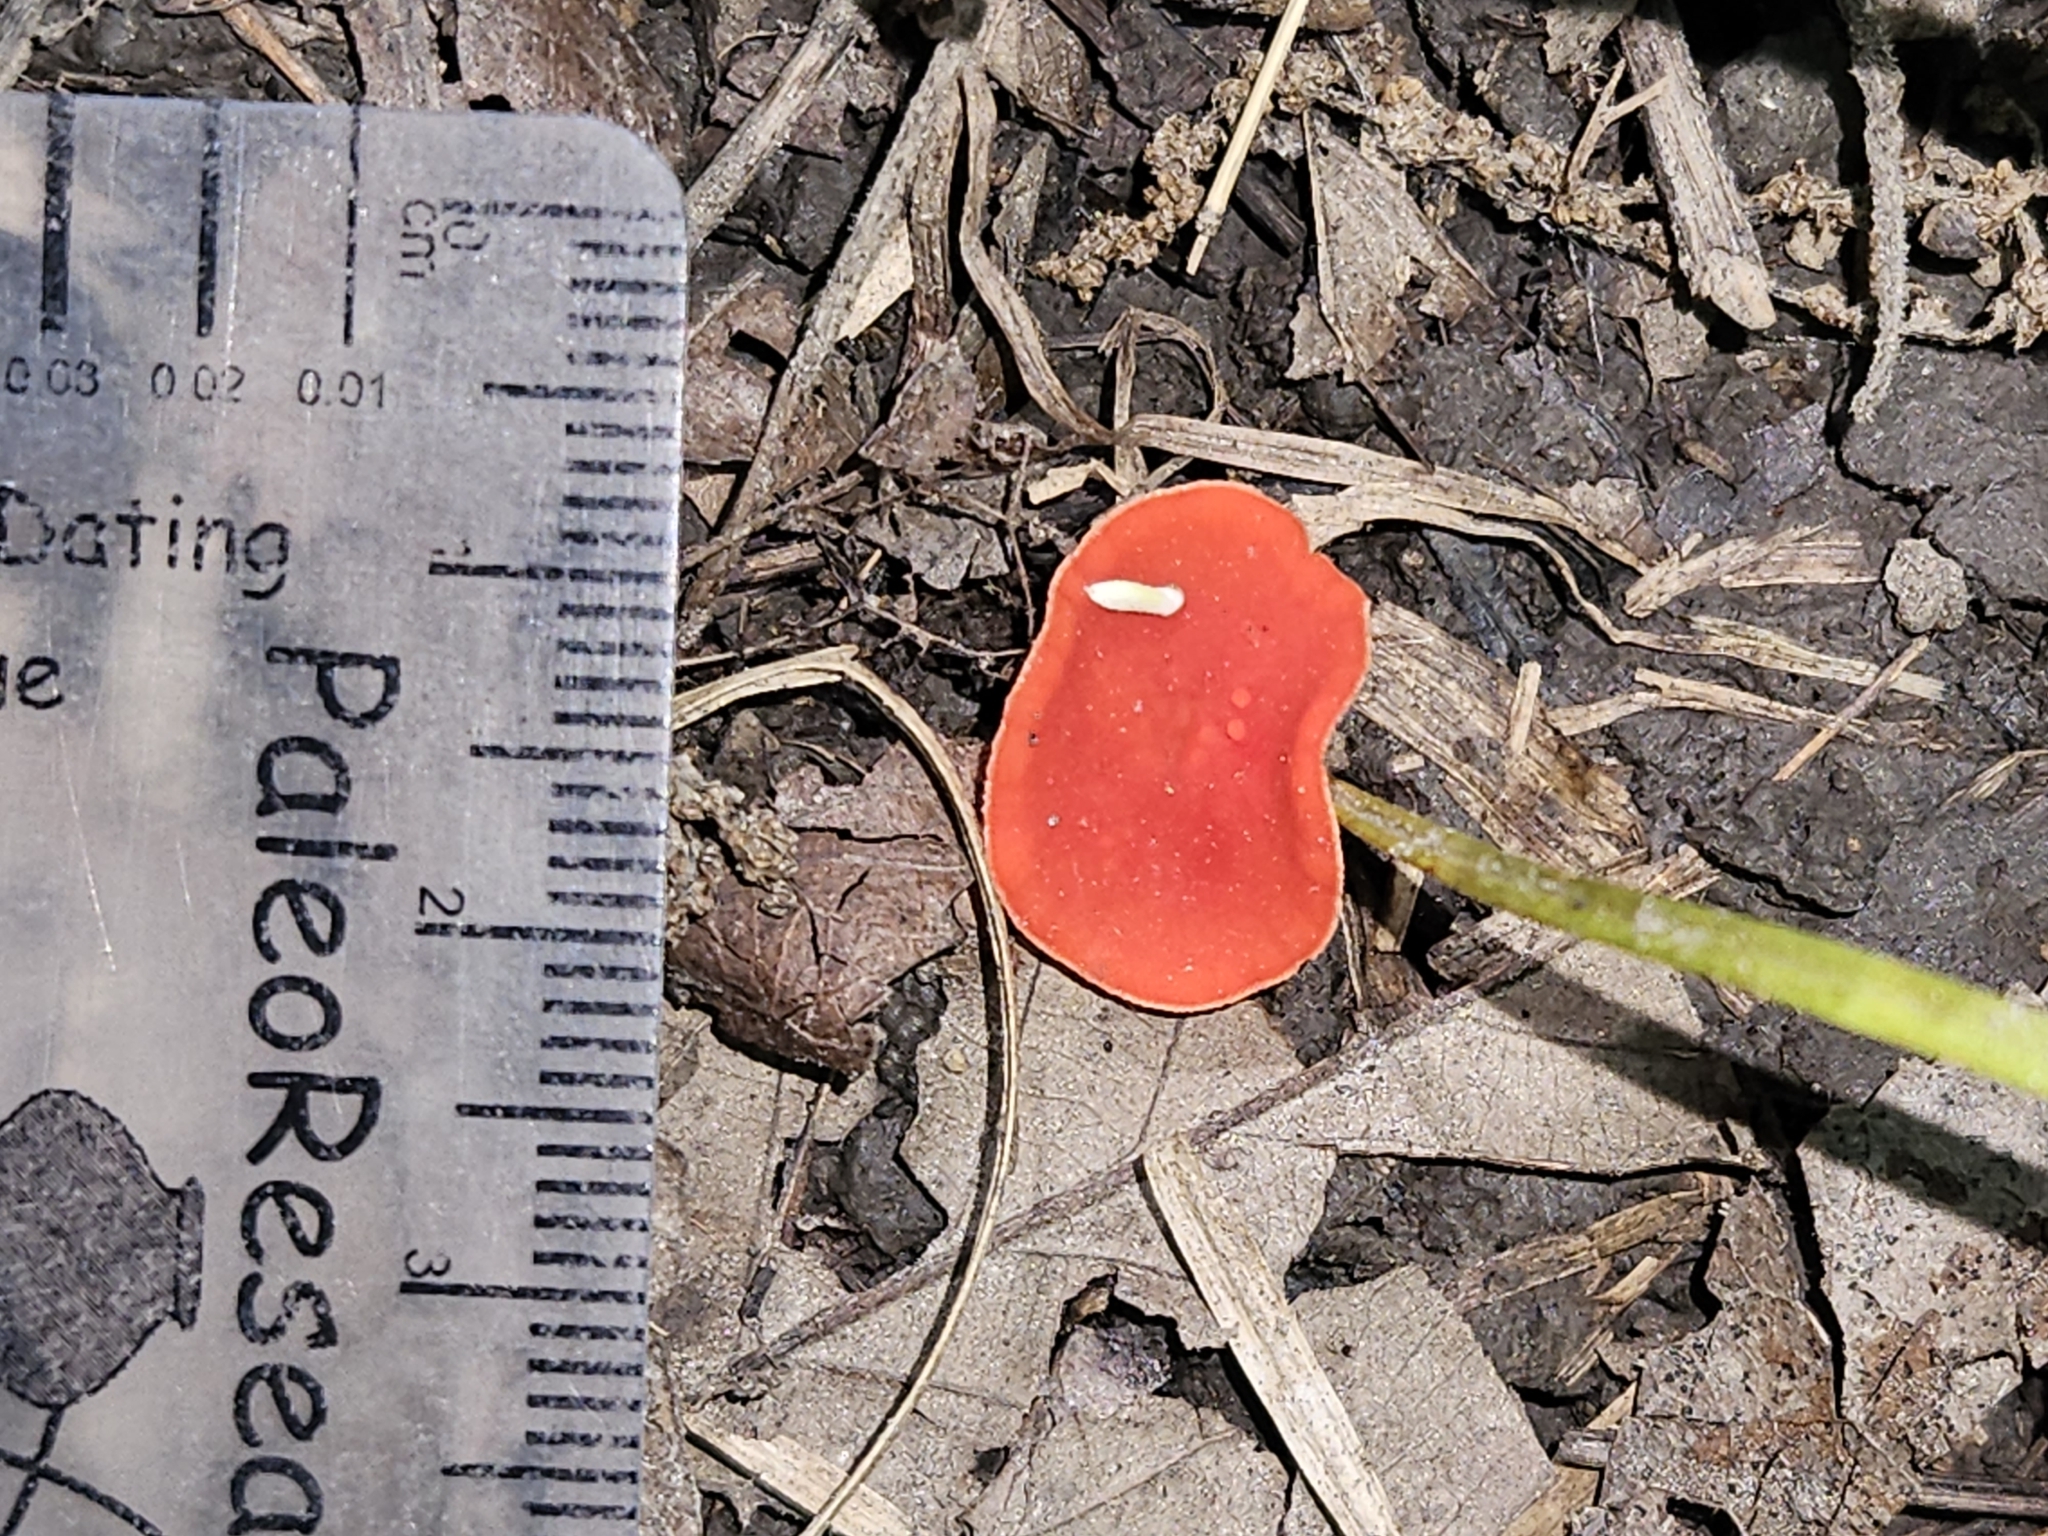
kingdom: Fungi
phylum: Ascomycota
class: Pezizomycetes
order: Pezizales
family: Sarcoscyphaceae
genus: Sarcoscypha
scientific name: Sarcoscypha austriaca
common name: Scarlet elfcup
